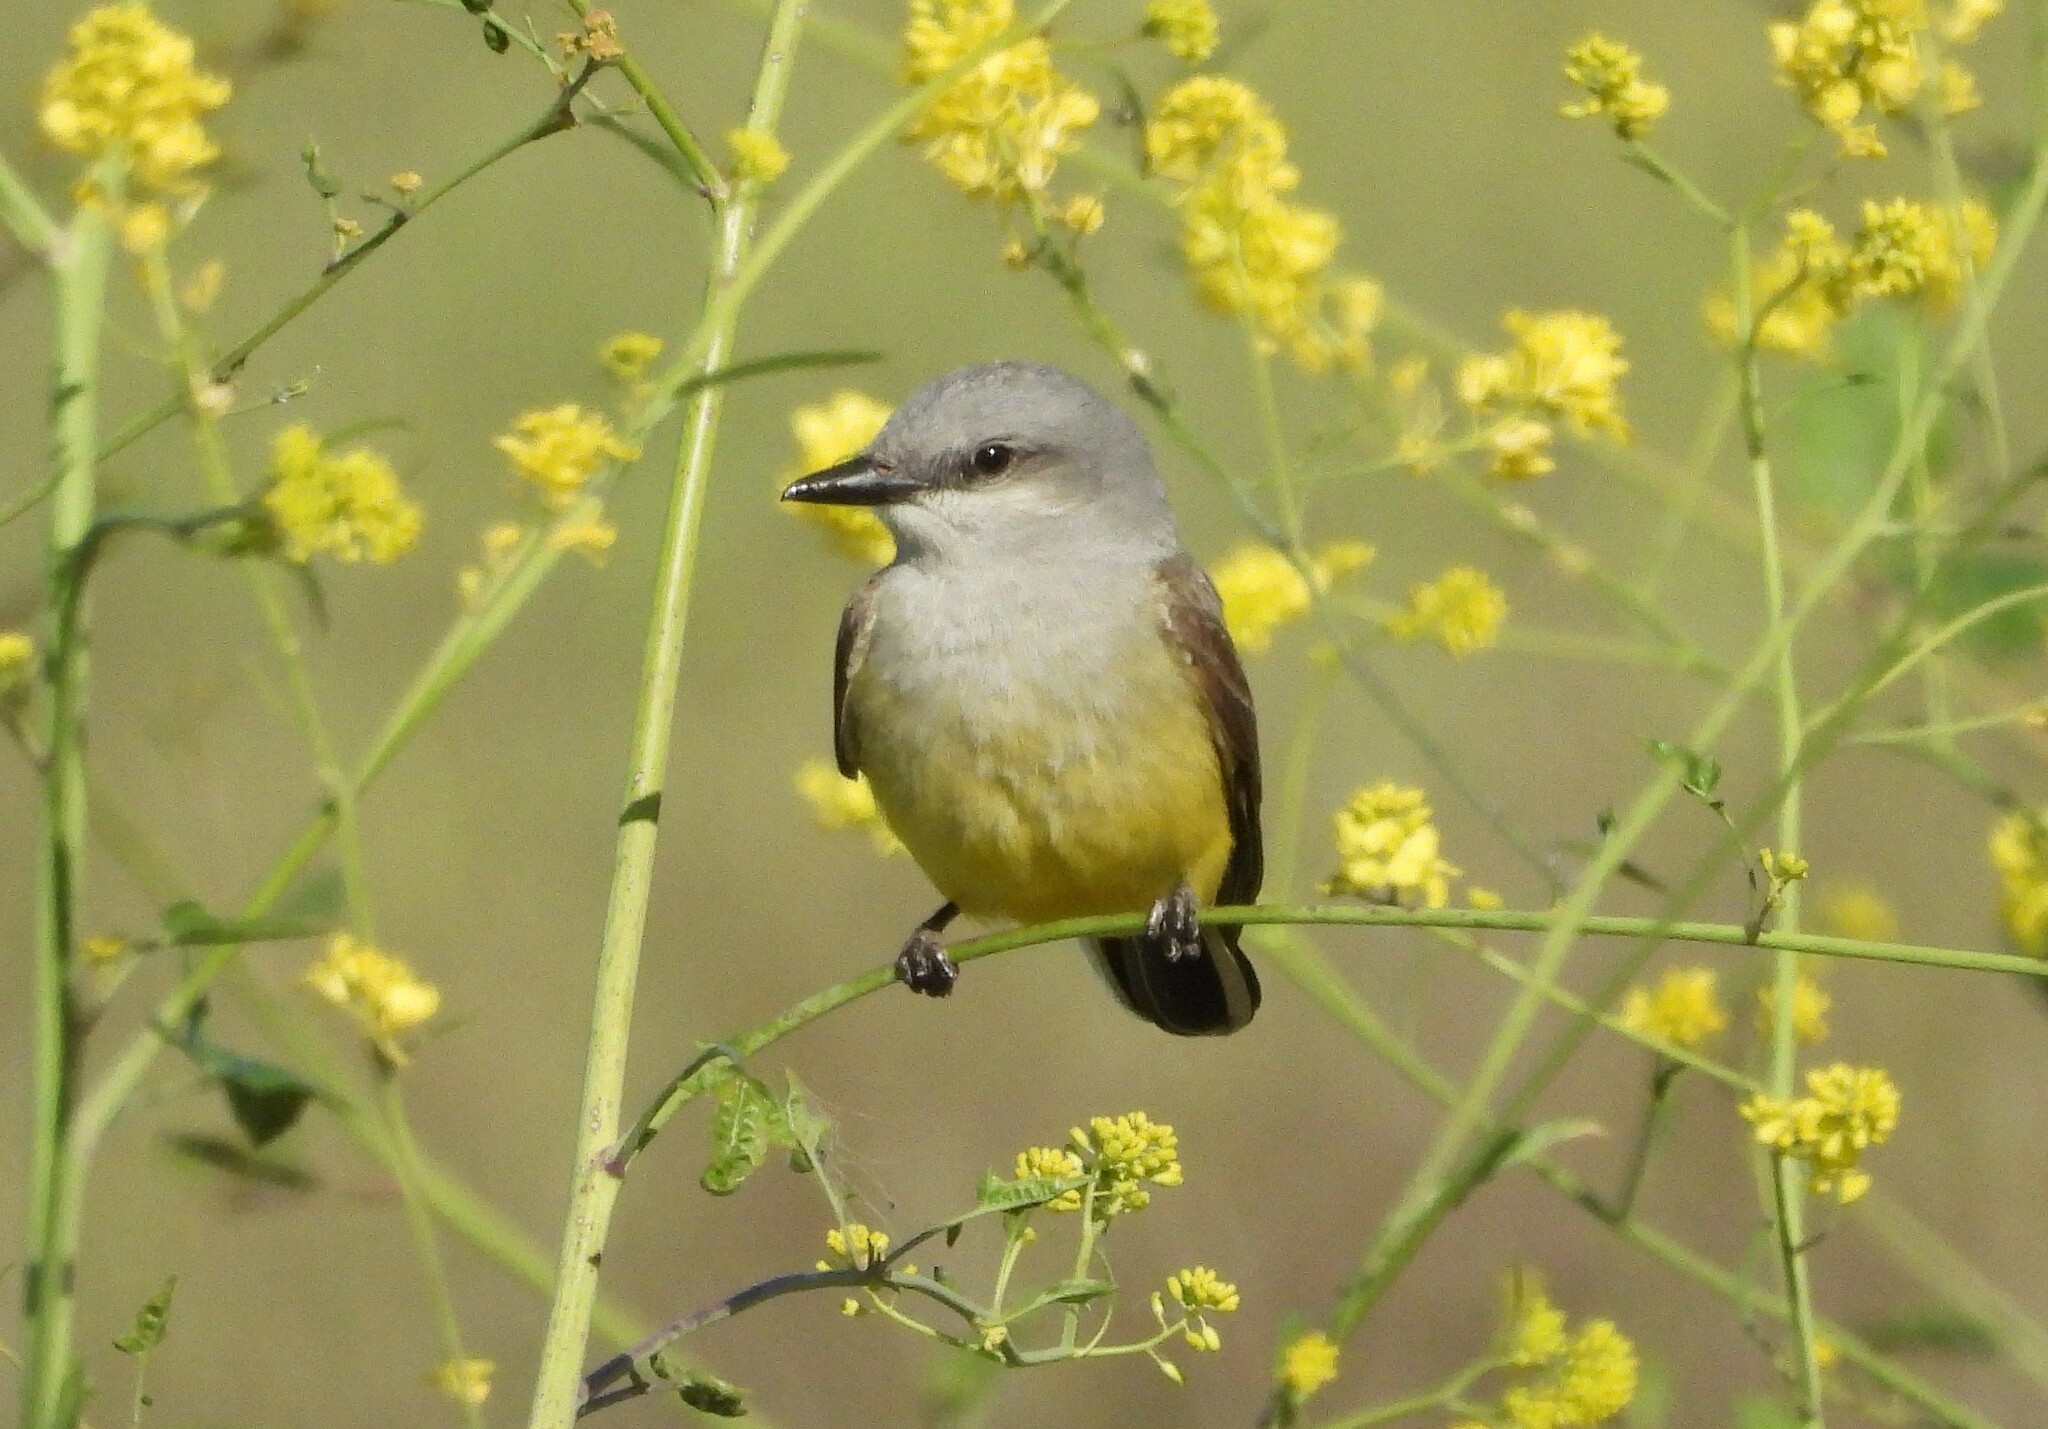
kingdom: Animalia
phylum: Chordata
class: Aves
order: Passeriformes
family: Tyrannidae
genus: Tyrannus
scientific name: Tyrannus verticalis
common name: Western kingbird
